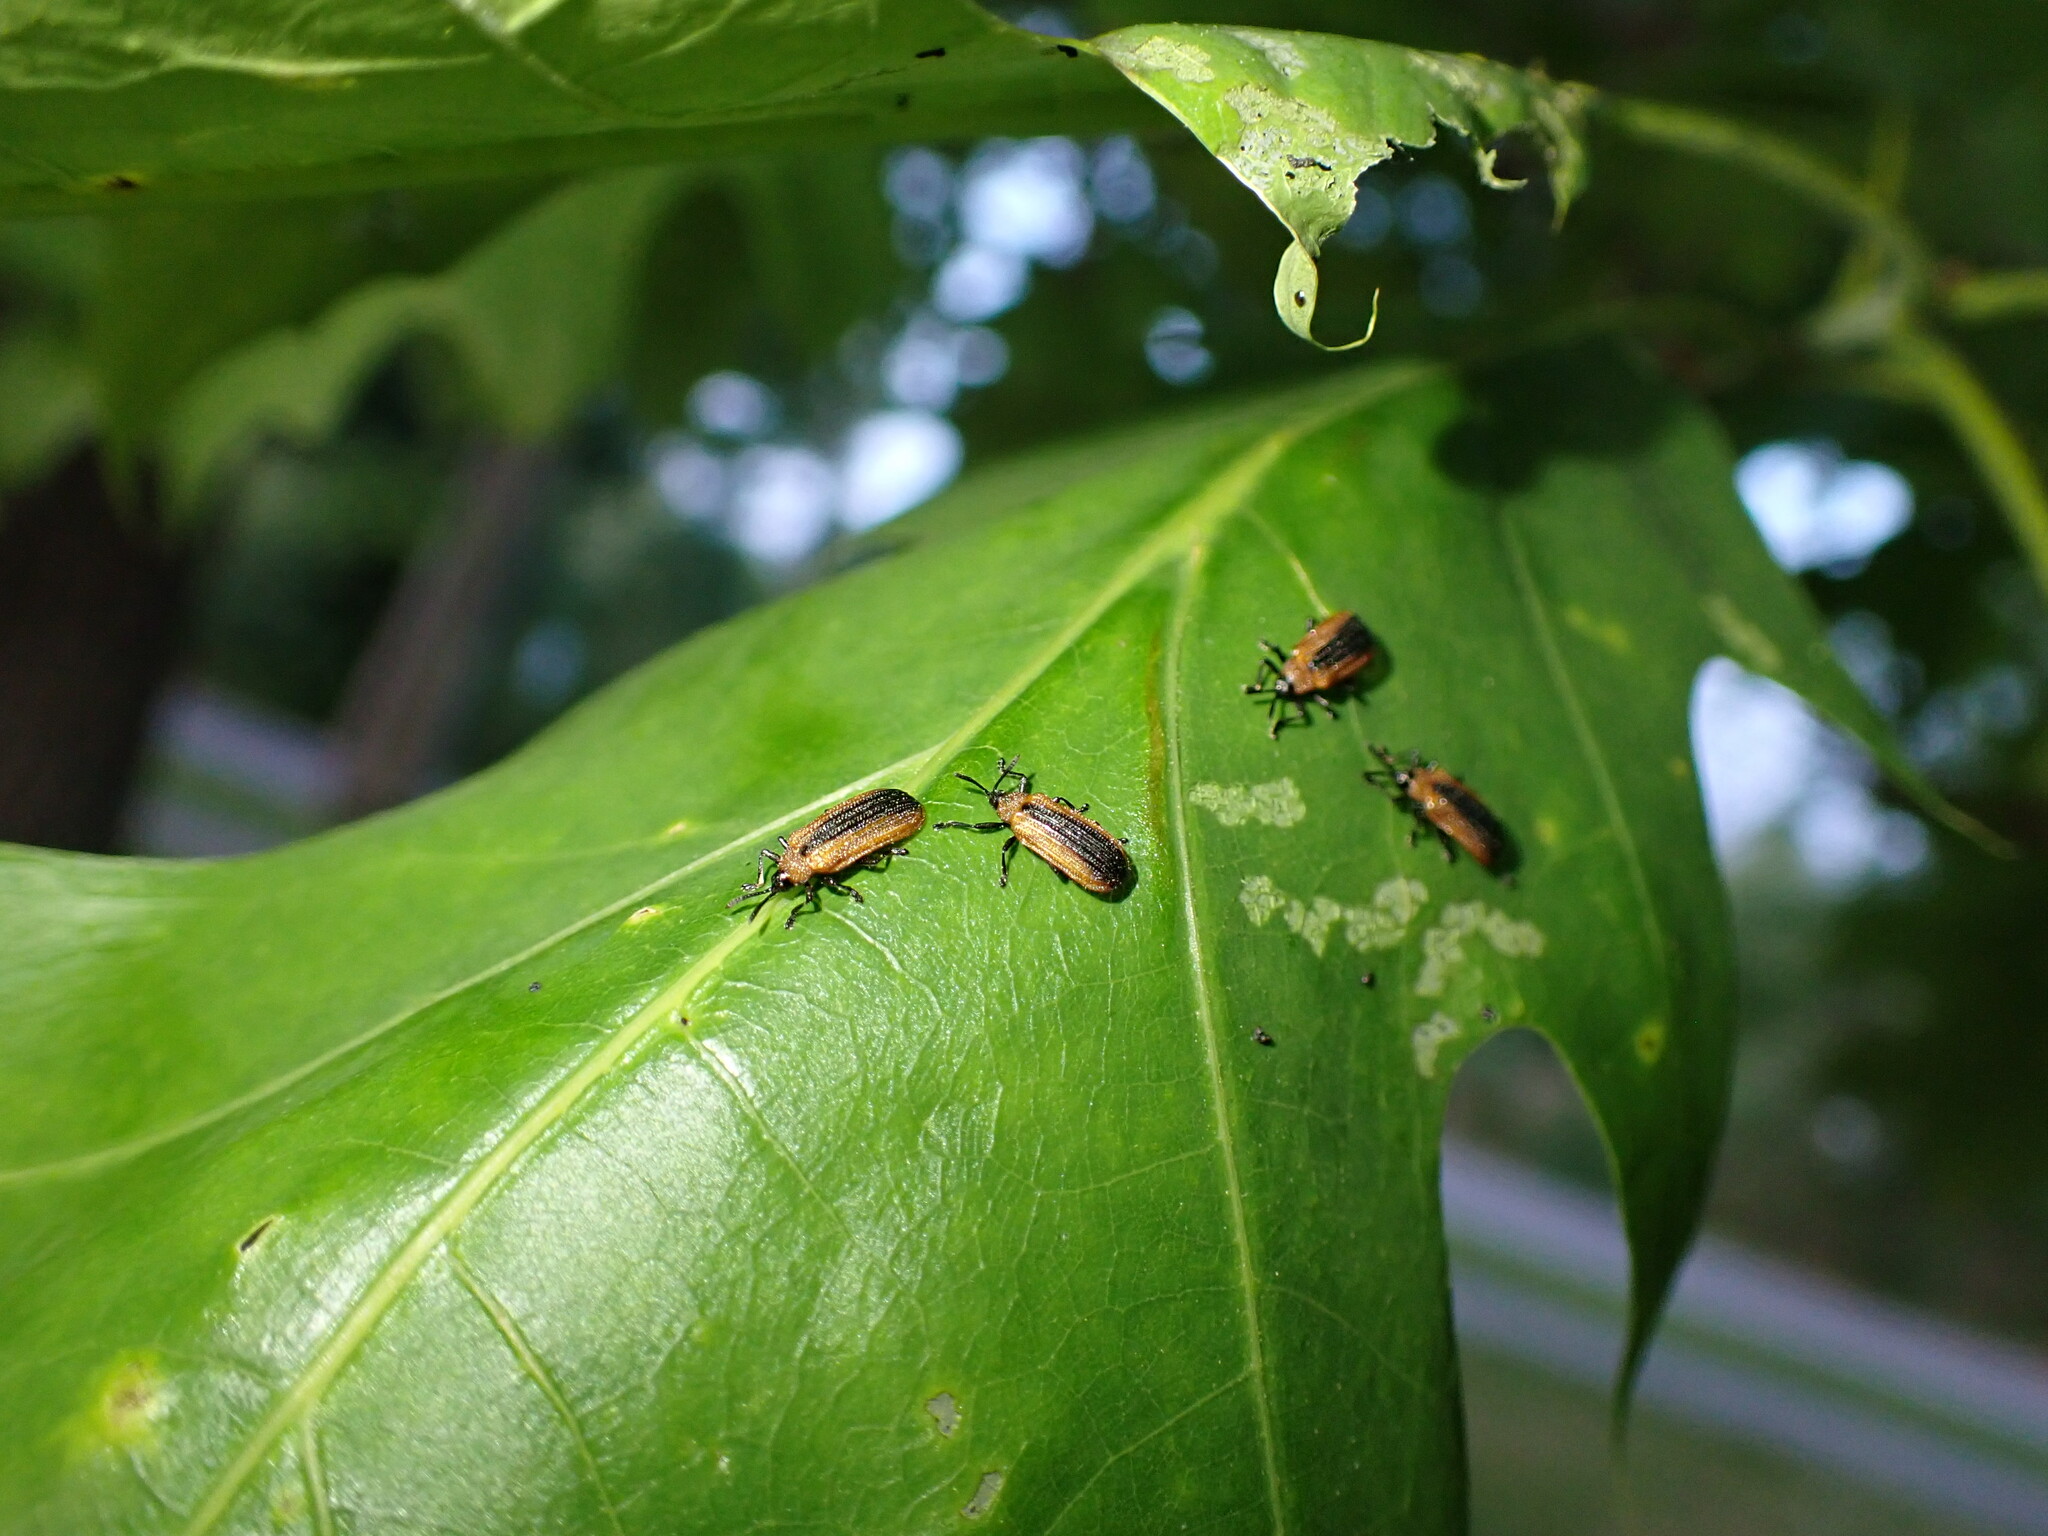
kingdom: Animalia
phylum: Arthropoda
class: Insecta
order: Coleoptera
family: Chrysomelidae
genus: Odontota
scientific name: Odontota dorsalis
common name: Locust leaf-miner beetle
